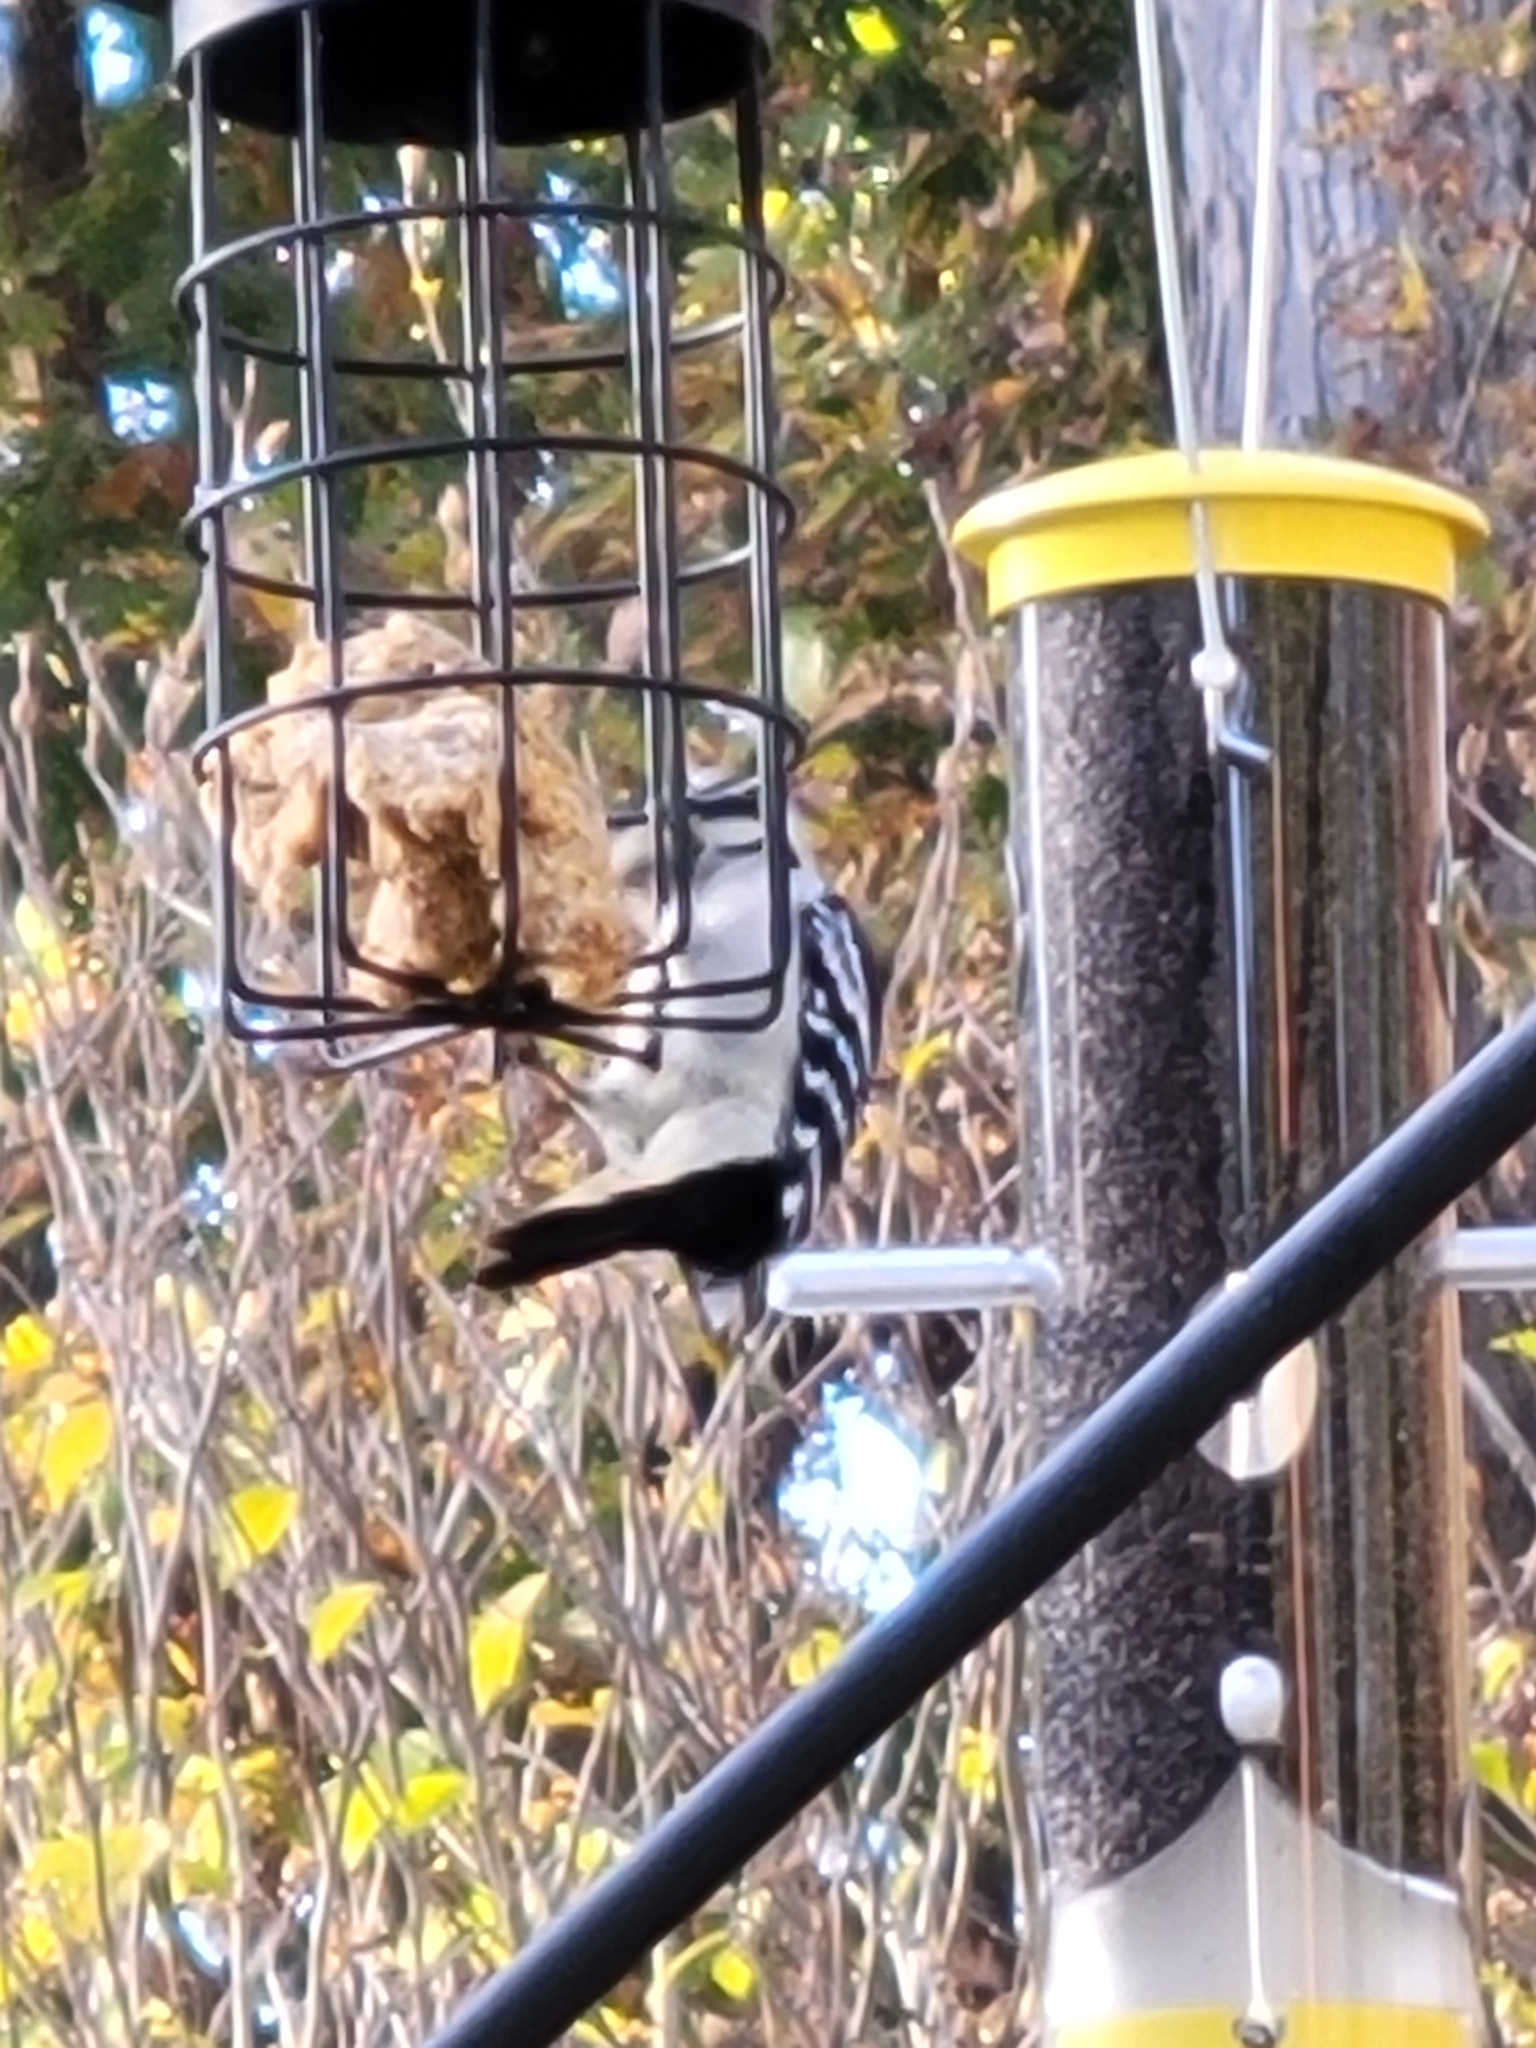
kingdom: Animalia
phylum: Chordata
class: Aves
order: Piciformes
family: Picidae
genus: Dryobates
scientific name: Dryobates pubescens
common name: Downy woodpecker
